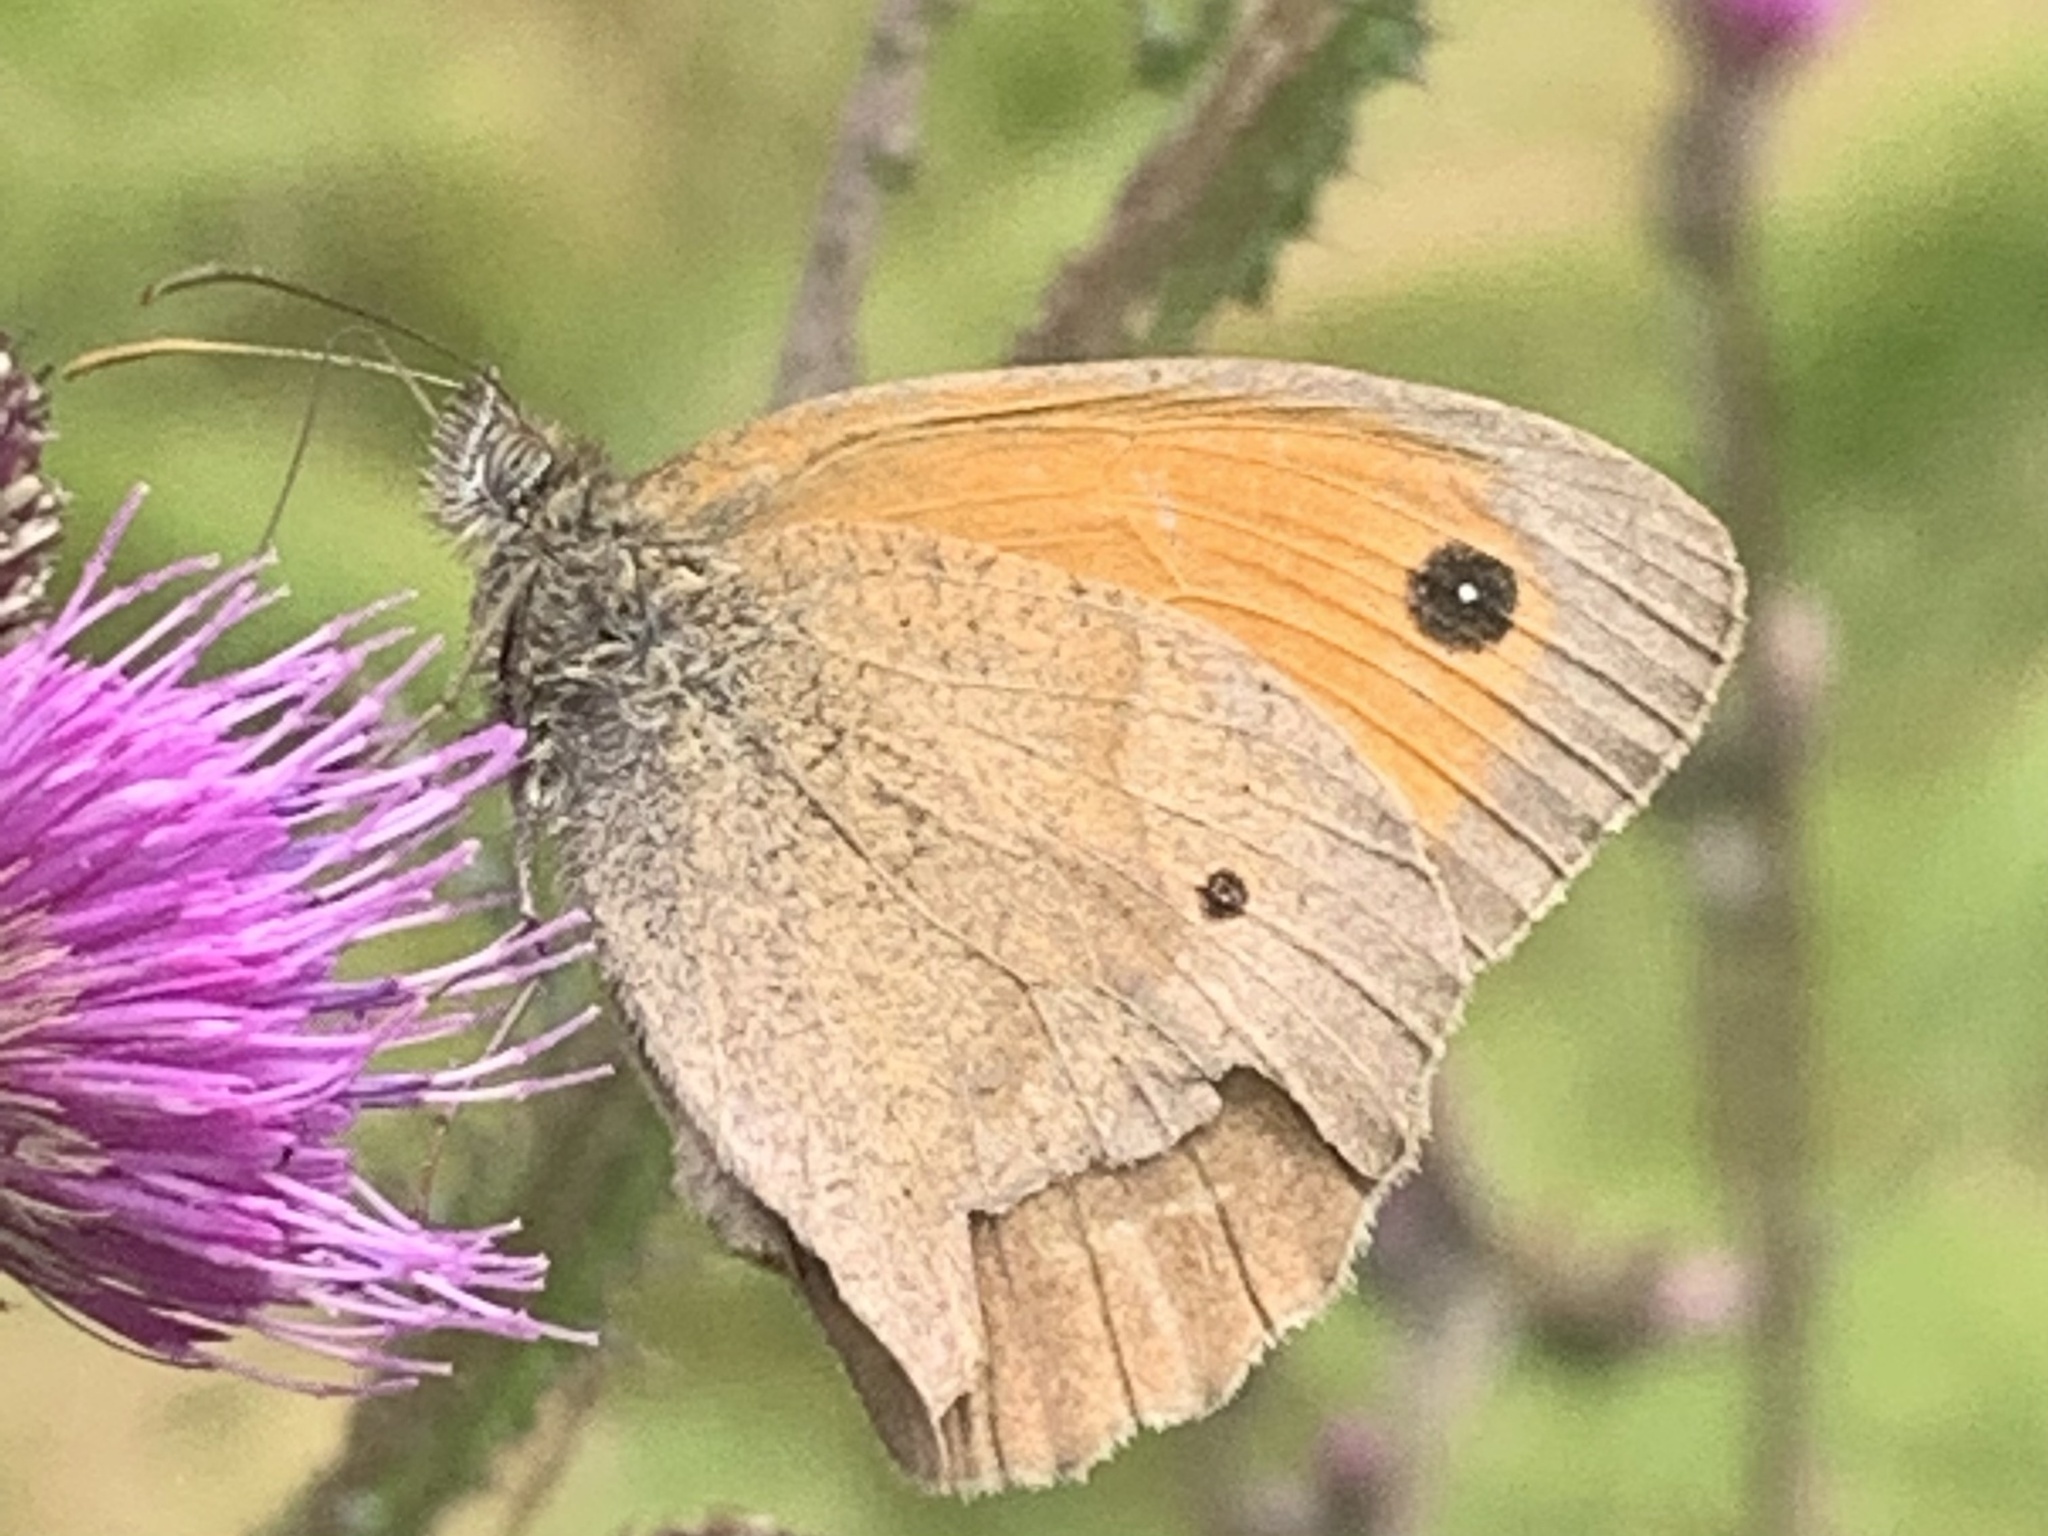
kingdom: Animalia
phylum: Arthropoda
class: Insecta
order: Lepidoptera
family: Nymphalidae
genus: Maniola
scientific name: Maniola jurtina
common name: Meadow brown
